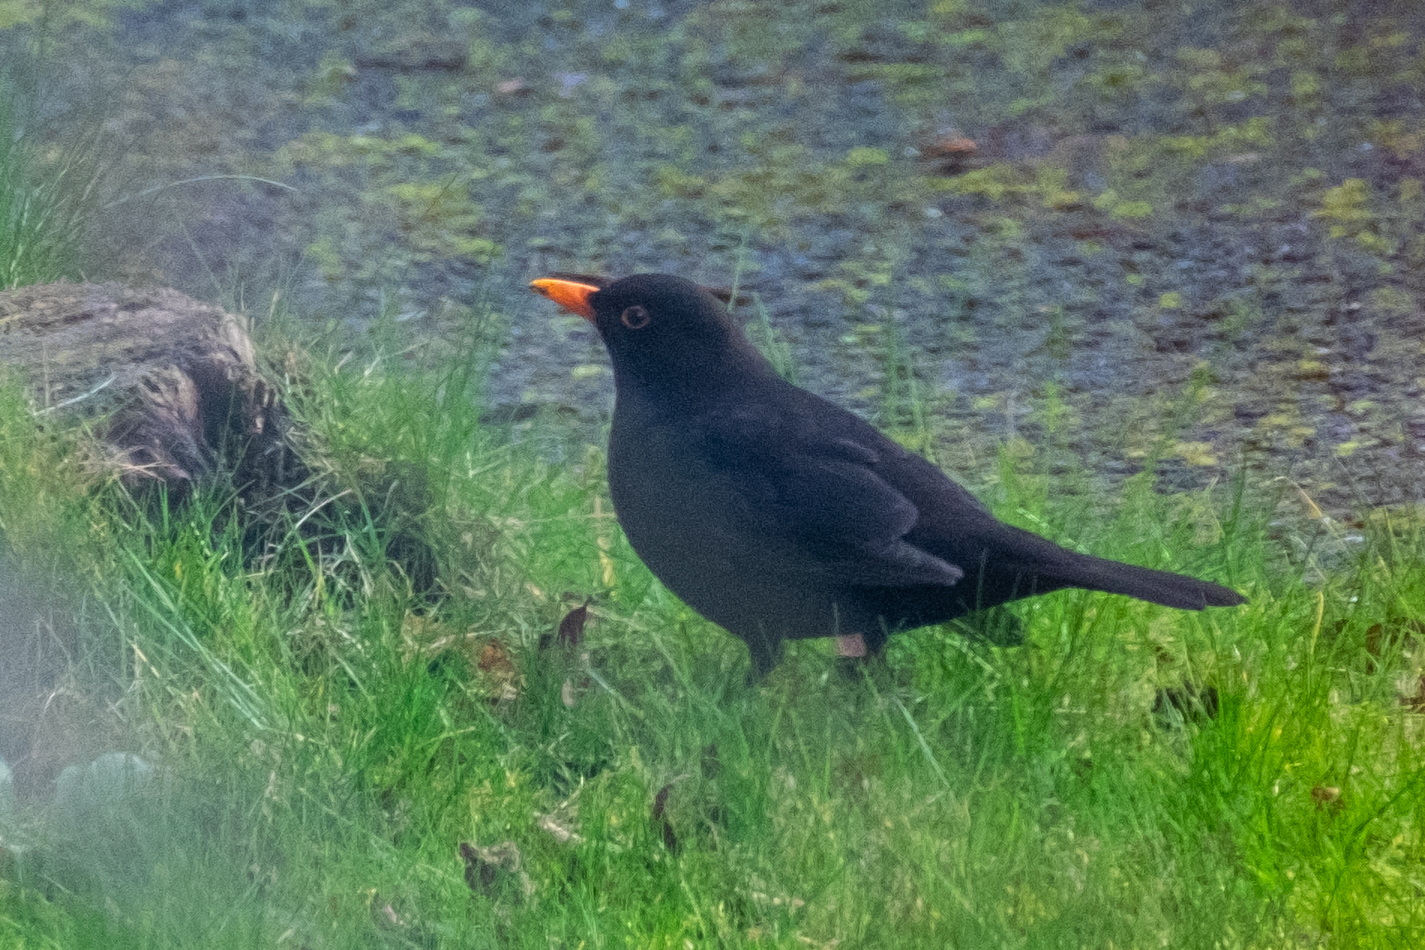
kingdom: Animalia
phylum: Chordata
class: Aves
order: Passeriformes
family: Turdidae
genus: Turdus
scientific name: Turdus merula
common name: Common blackbird
